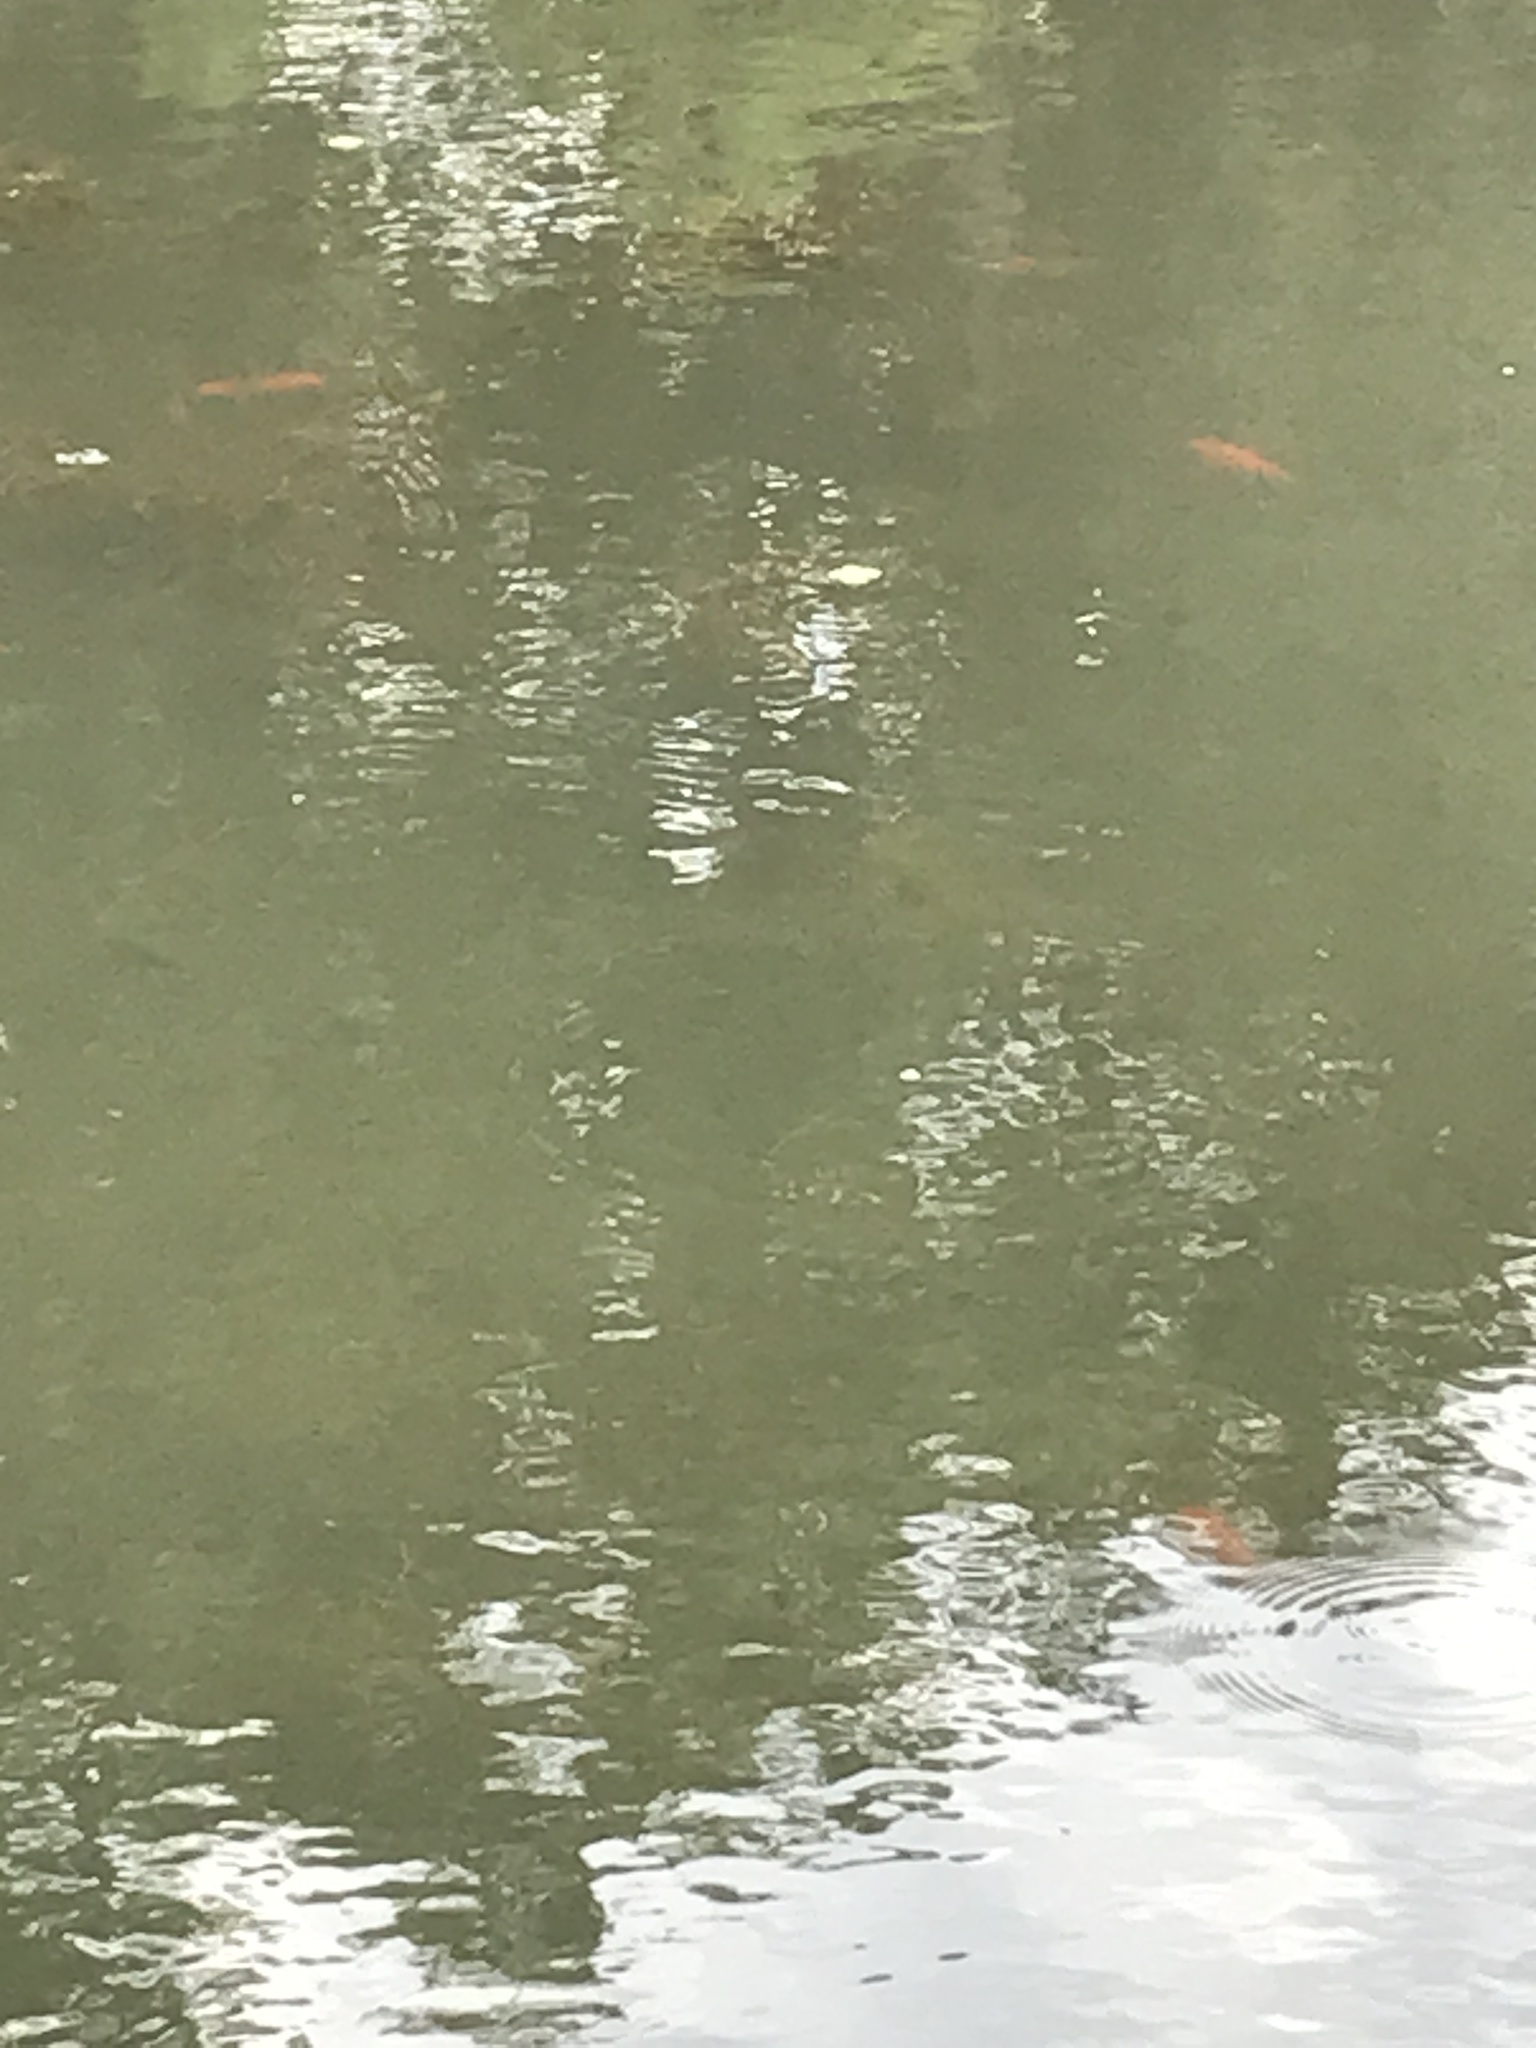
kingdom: Animalia
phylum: Chordata
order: Cypriniformes
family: Cyprinidae
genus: Carassius
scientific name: Carassius auratus
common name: Goldfish
